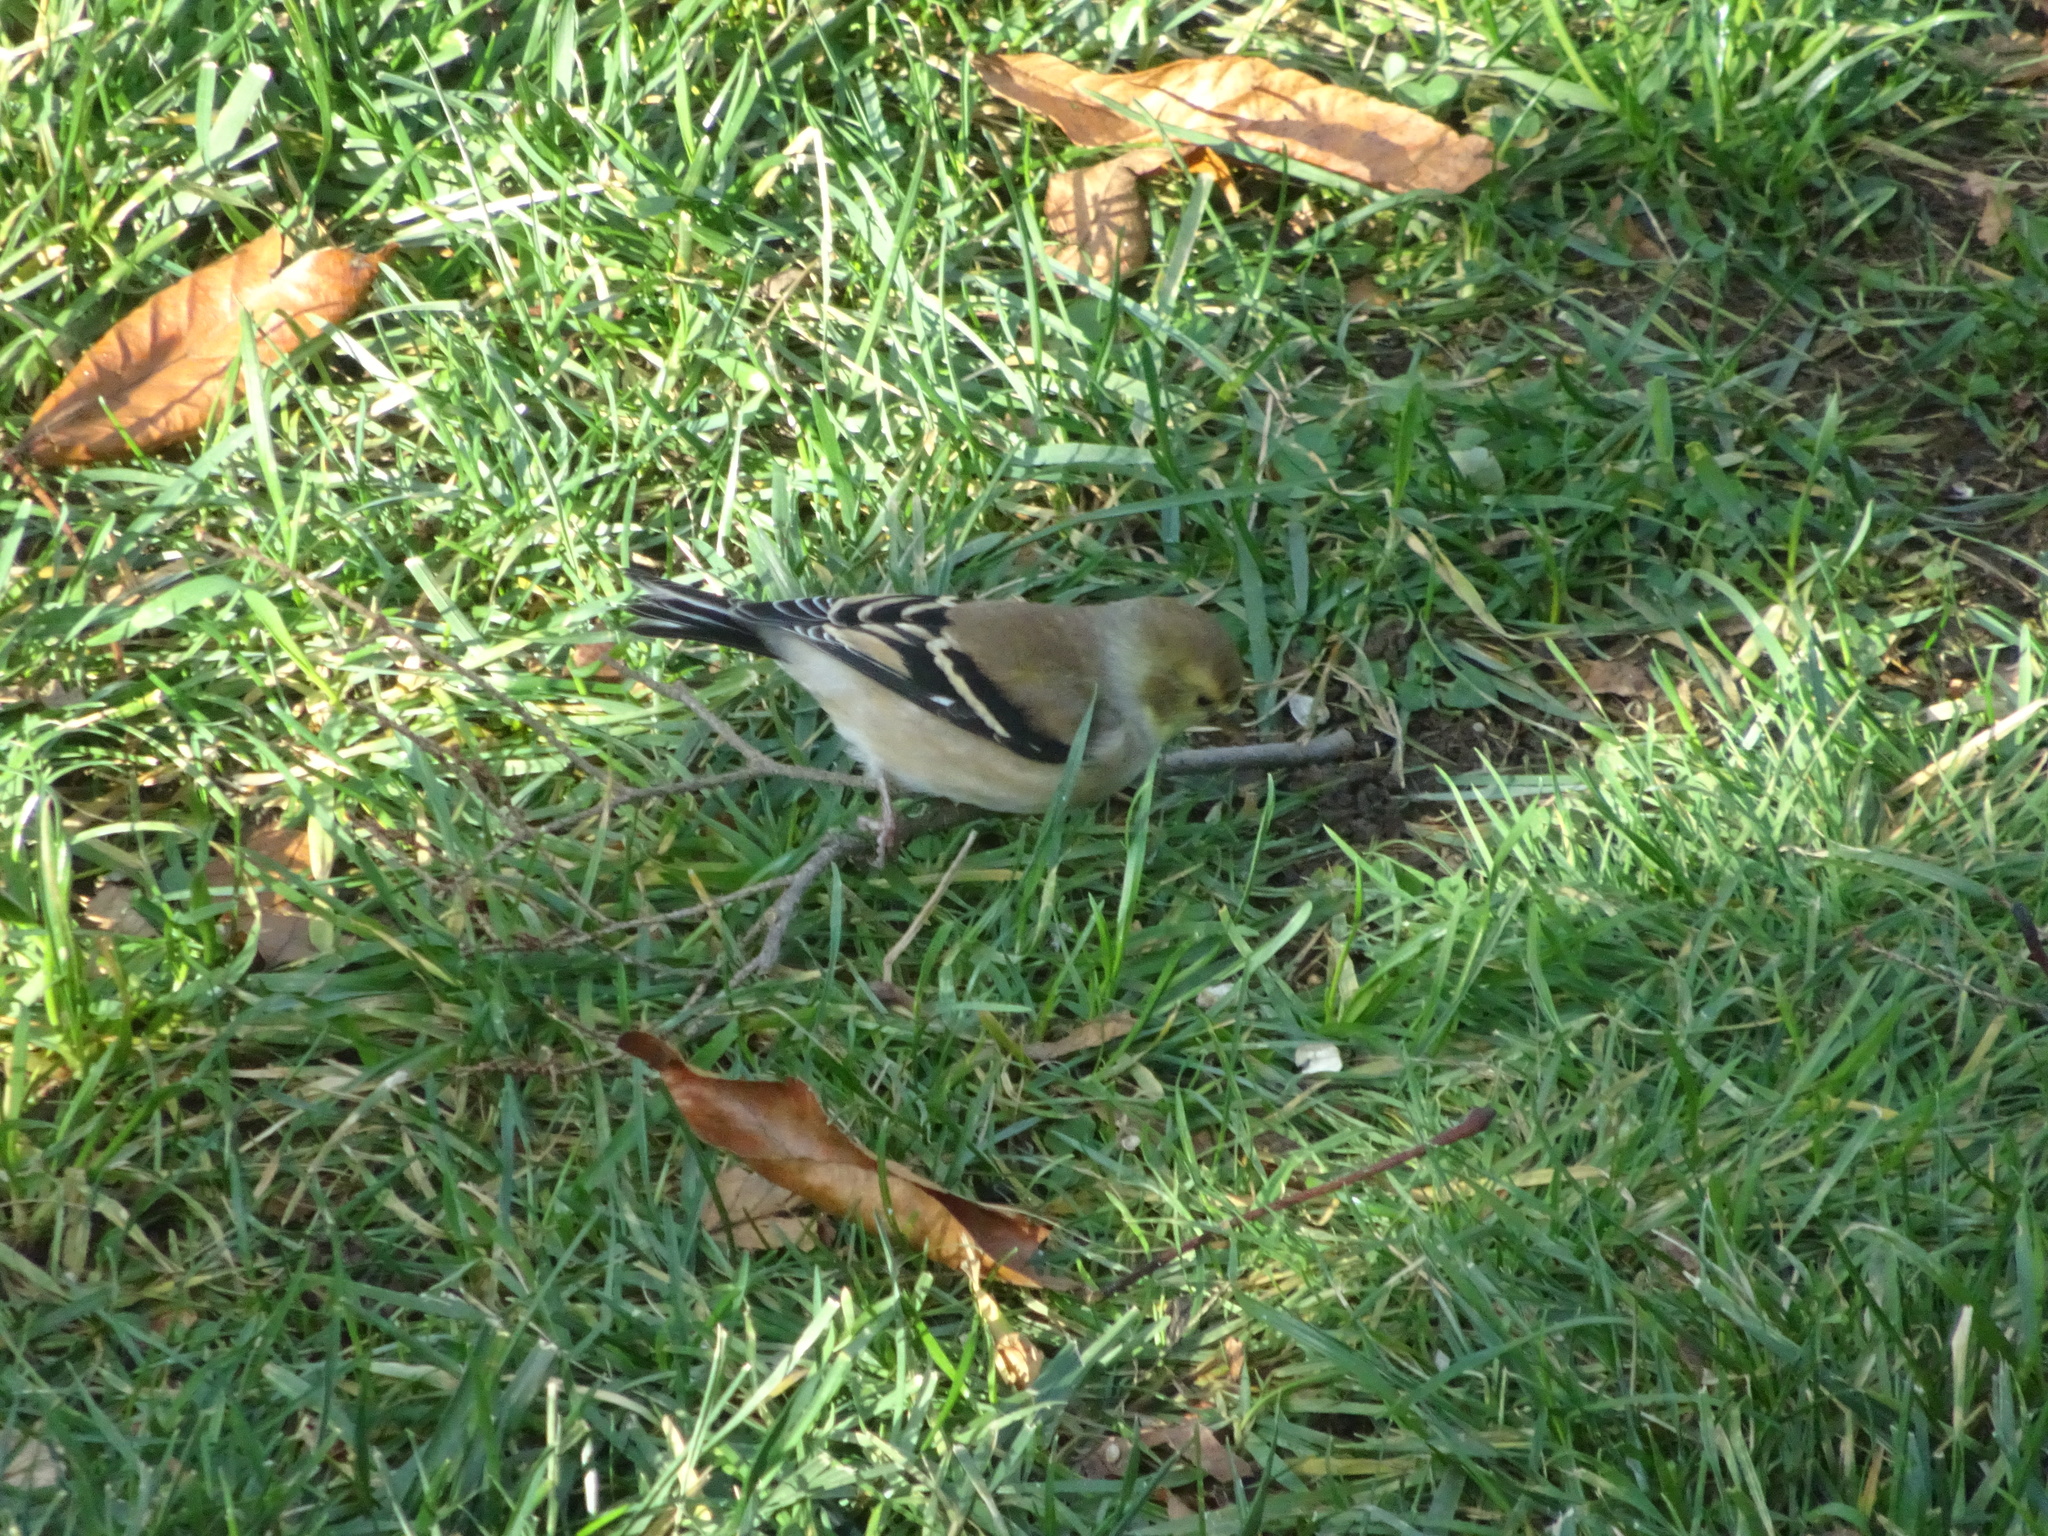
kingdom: Animalia
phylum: Chordata
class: Aves
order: Passeriformes
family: Fringillidae
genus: Spinus
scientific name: Spinus tristis
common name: American goldfinch
